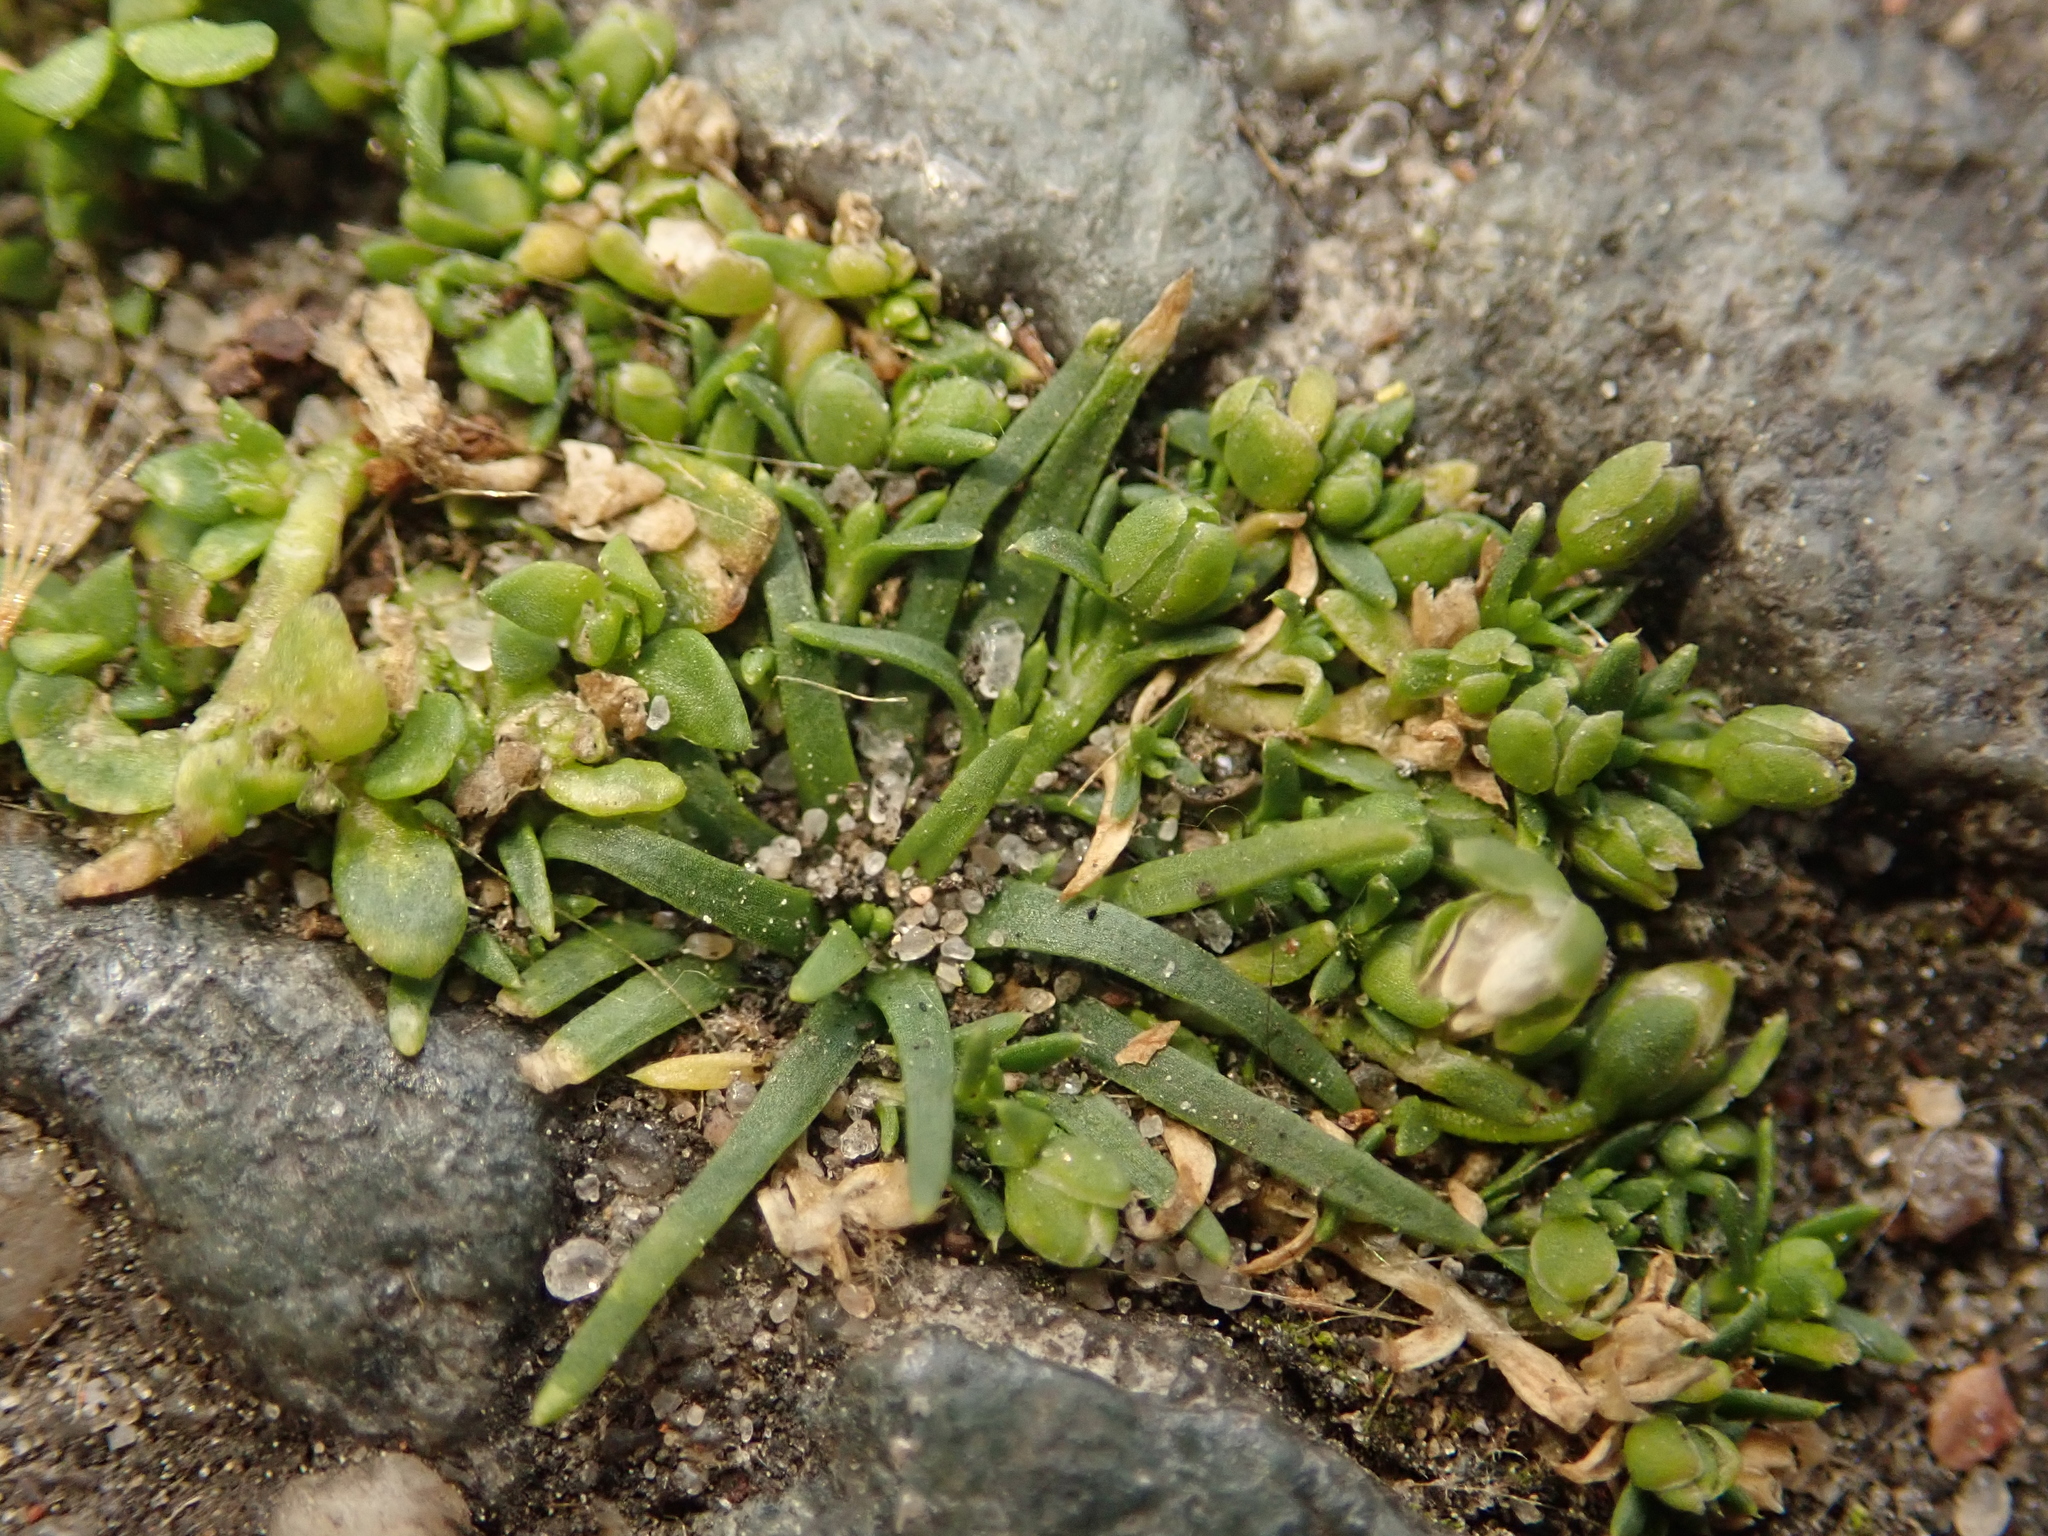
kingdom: Plantae
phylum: Tracheophyta
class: Magnoliopsida
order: Caryophyllales
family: Caryophyllaceae
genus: Sagina
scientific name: Sagina procumbens
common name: Procumbent pearlwort
